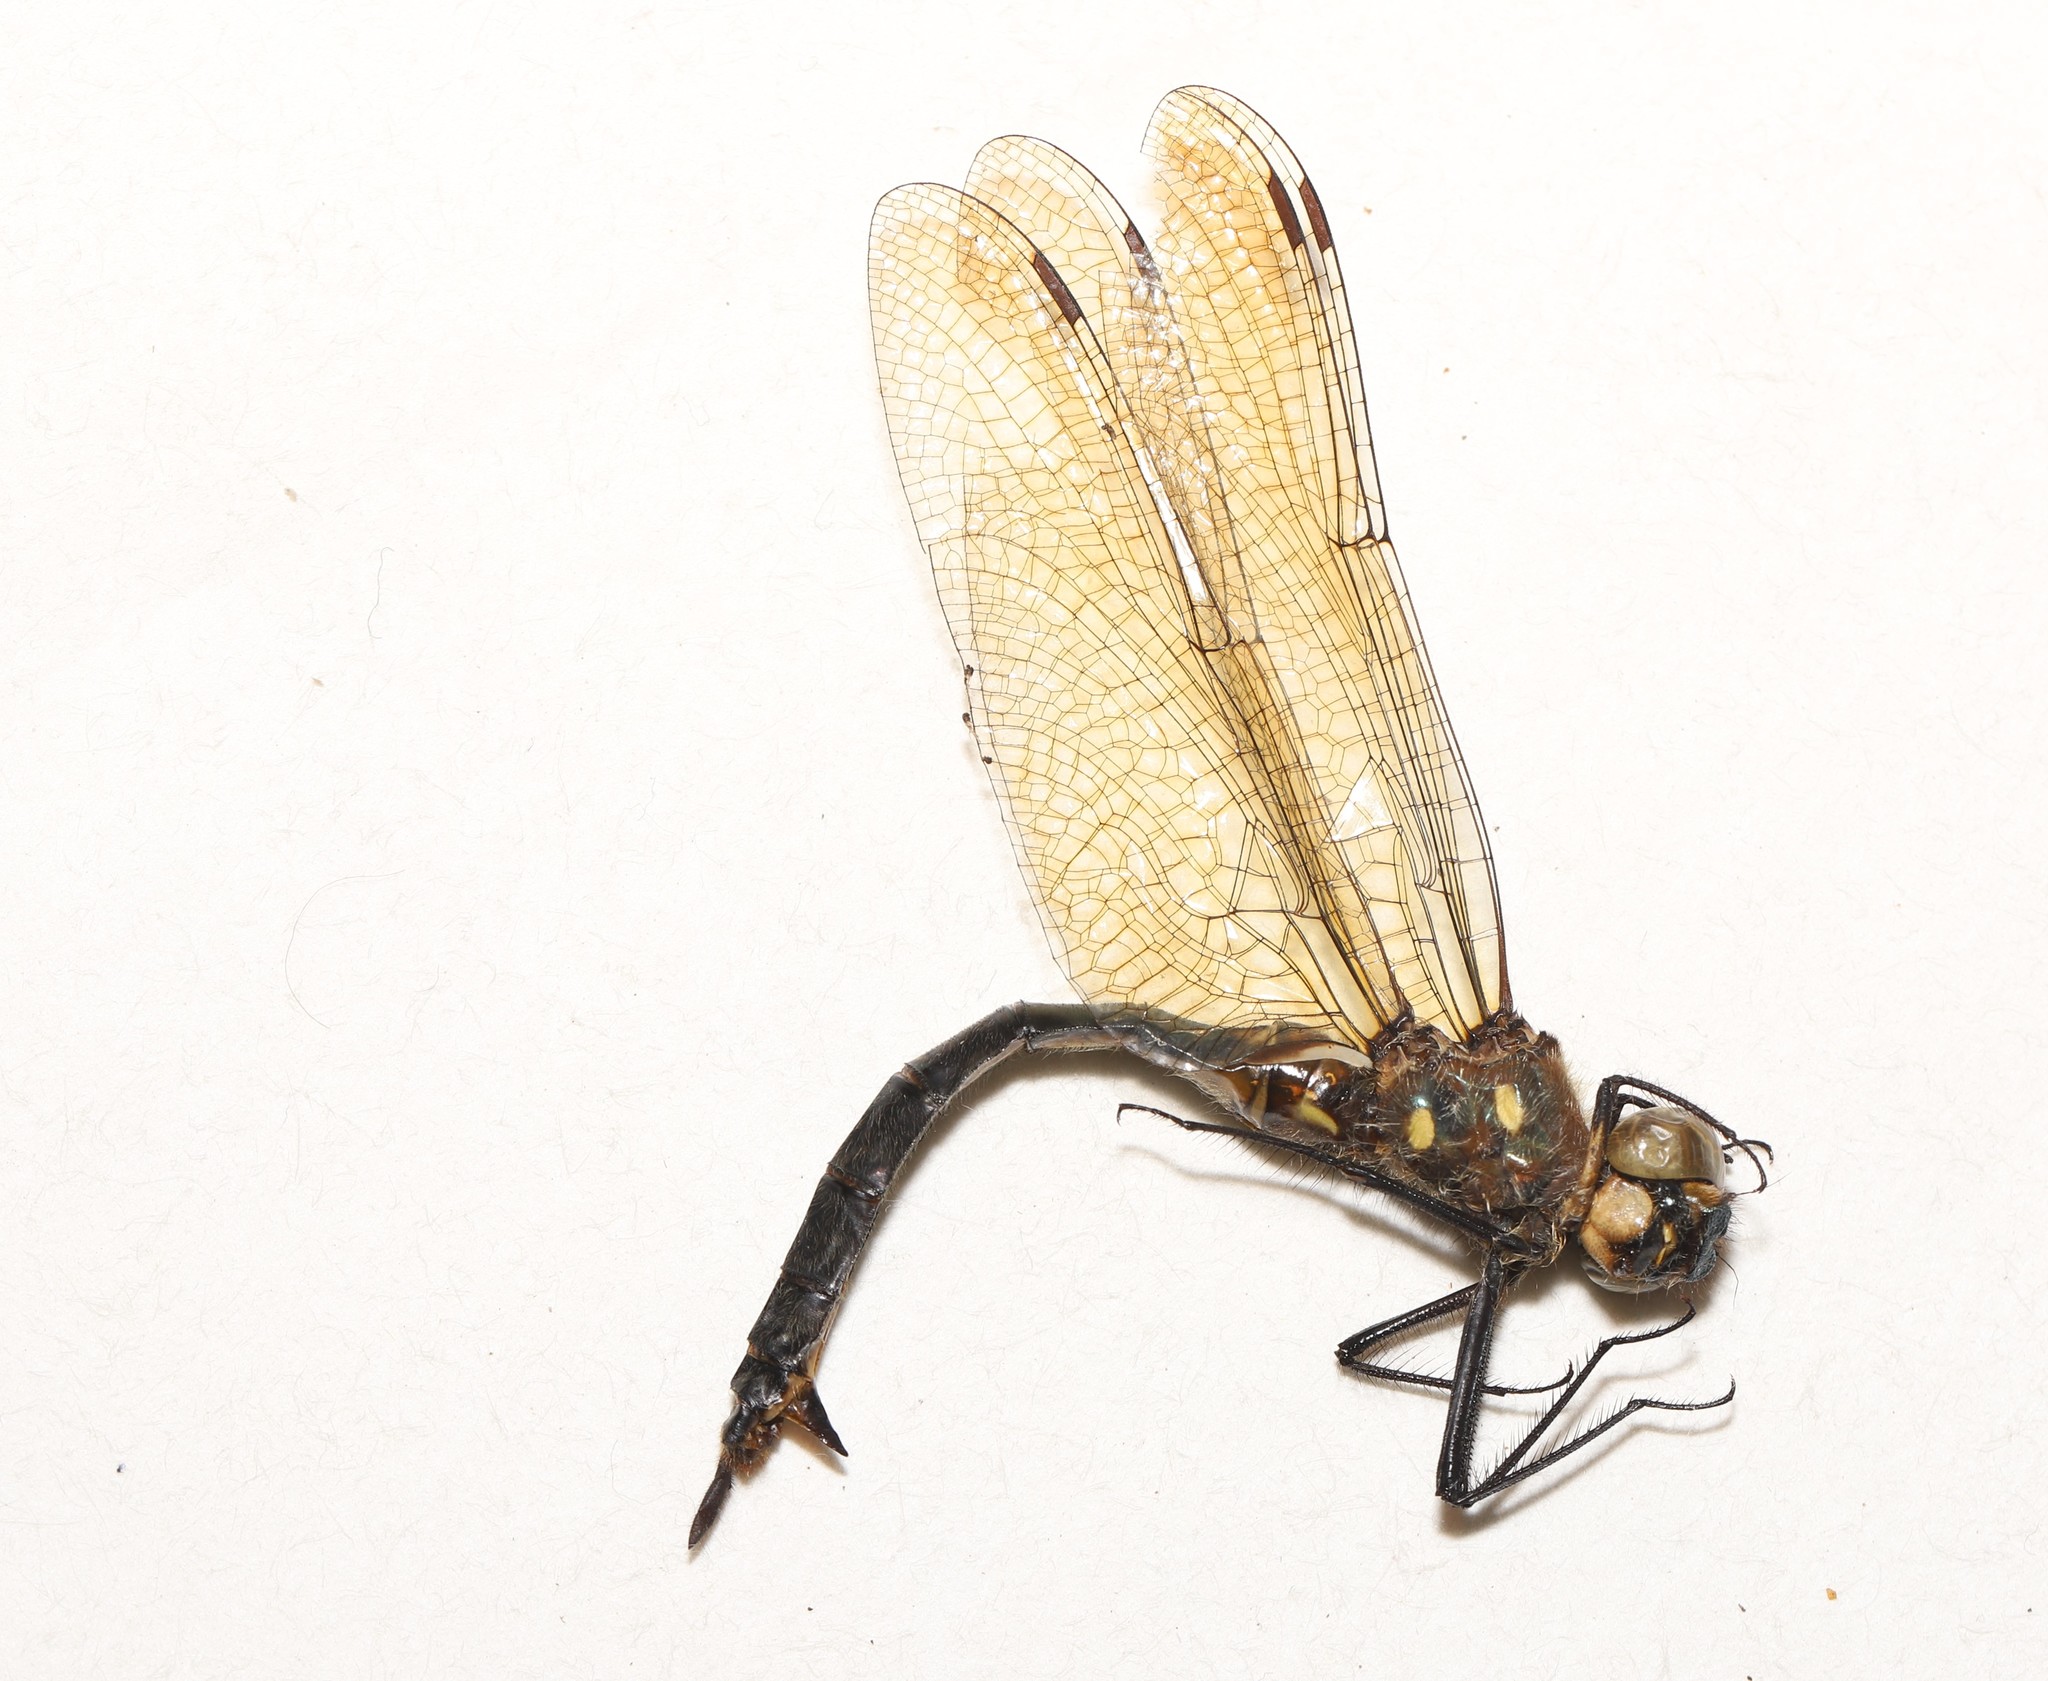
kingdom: Animalia
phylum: Arthropoda
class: Insecta
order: Odonata
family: Corduliidae
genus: Somatochlora
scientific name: Somatochlora minor
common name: Ocellated emerald
